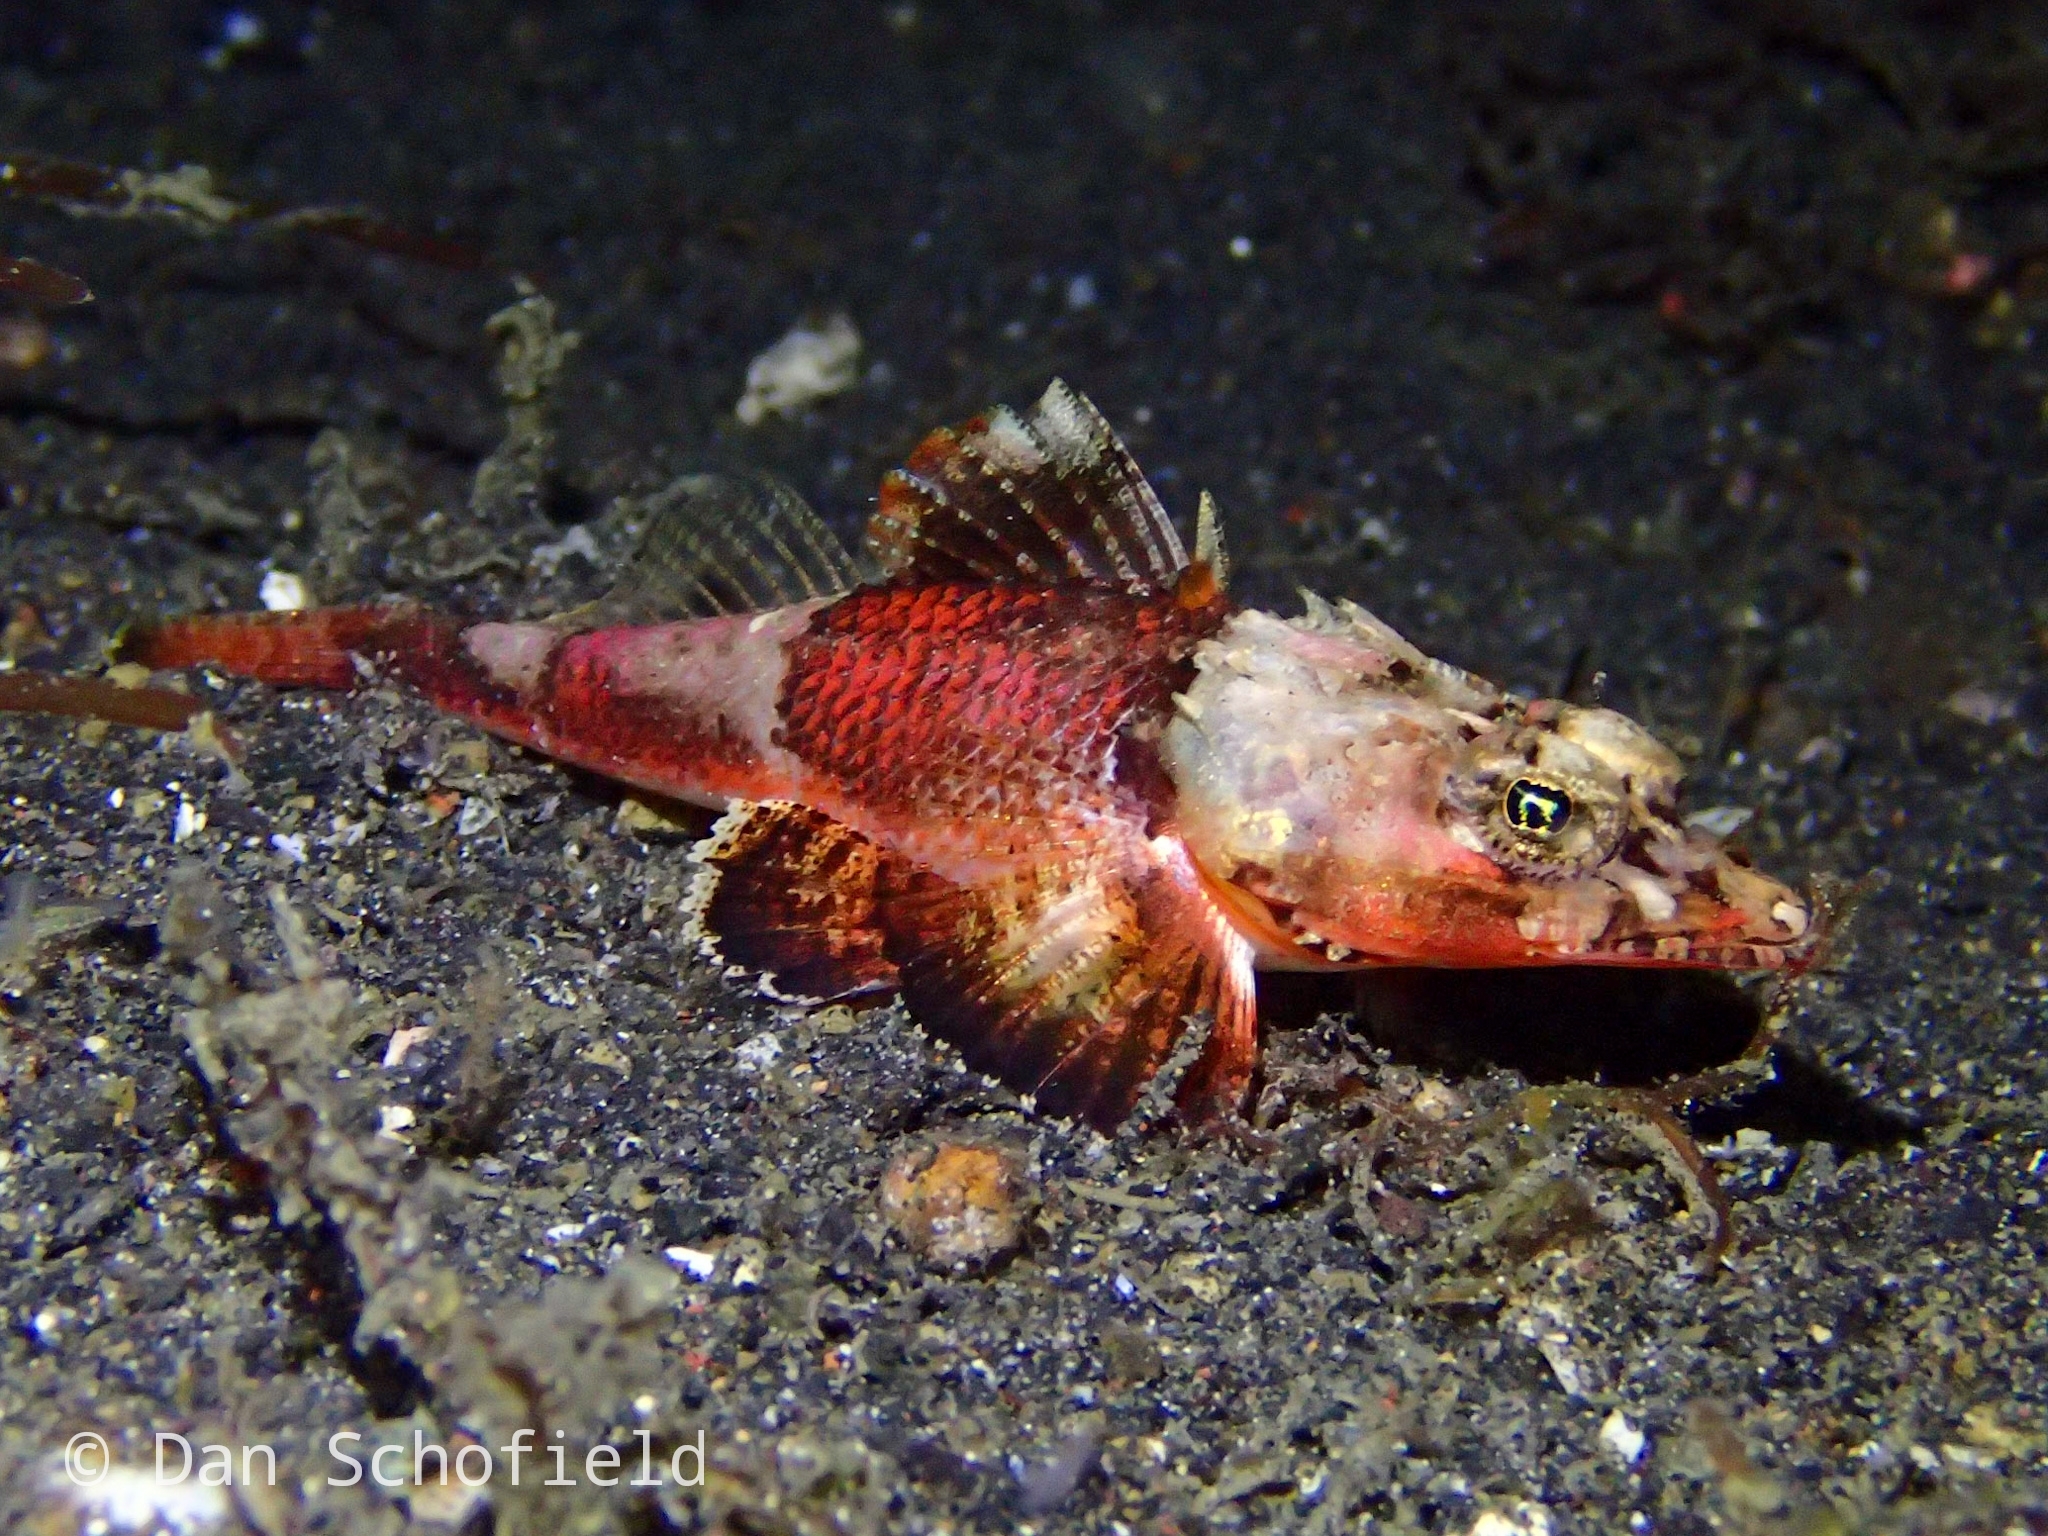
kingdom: Animalia
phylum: Chordata
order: Scorpaeniformes
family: Platycephalidae
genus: Onigocia
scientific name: Onigocia spinosa
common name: Midget flathead
